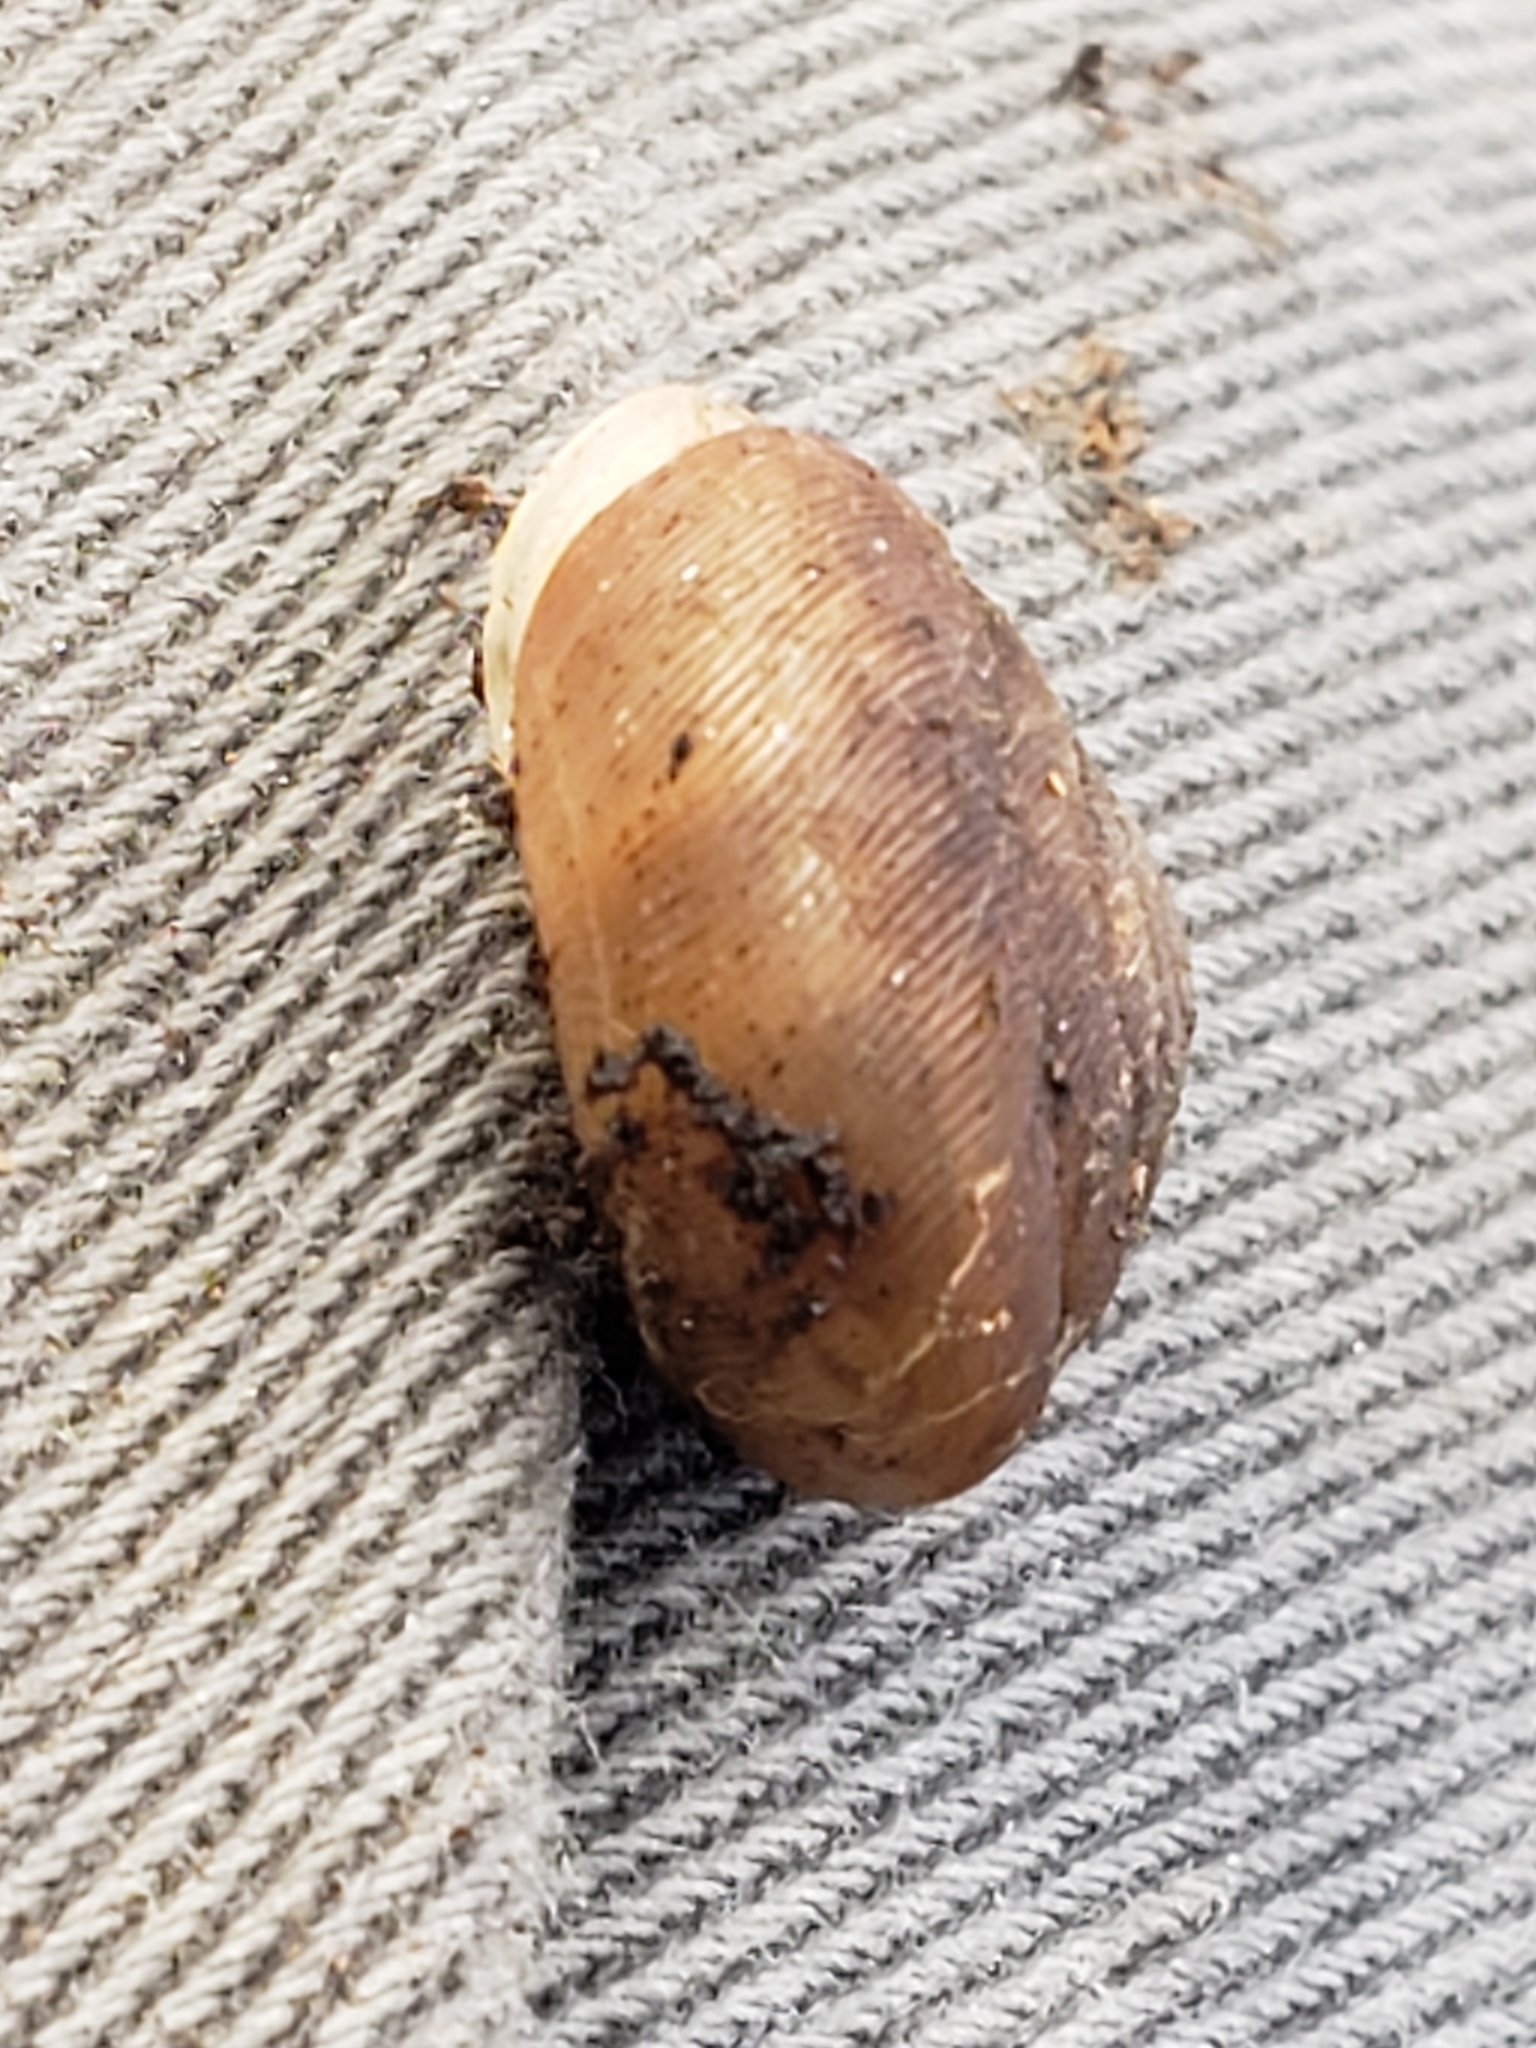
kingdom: Animalia
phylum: Mollusca
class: Gastropoda
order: Stylommatophora
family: Polygyridae
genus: Triodopsis
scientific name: Triodopsis fallax
